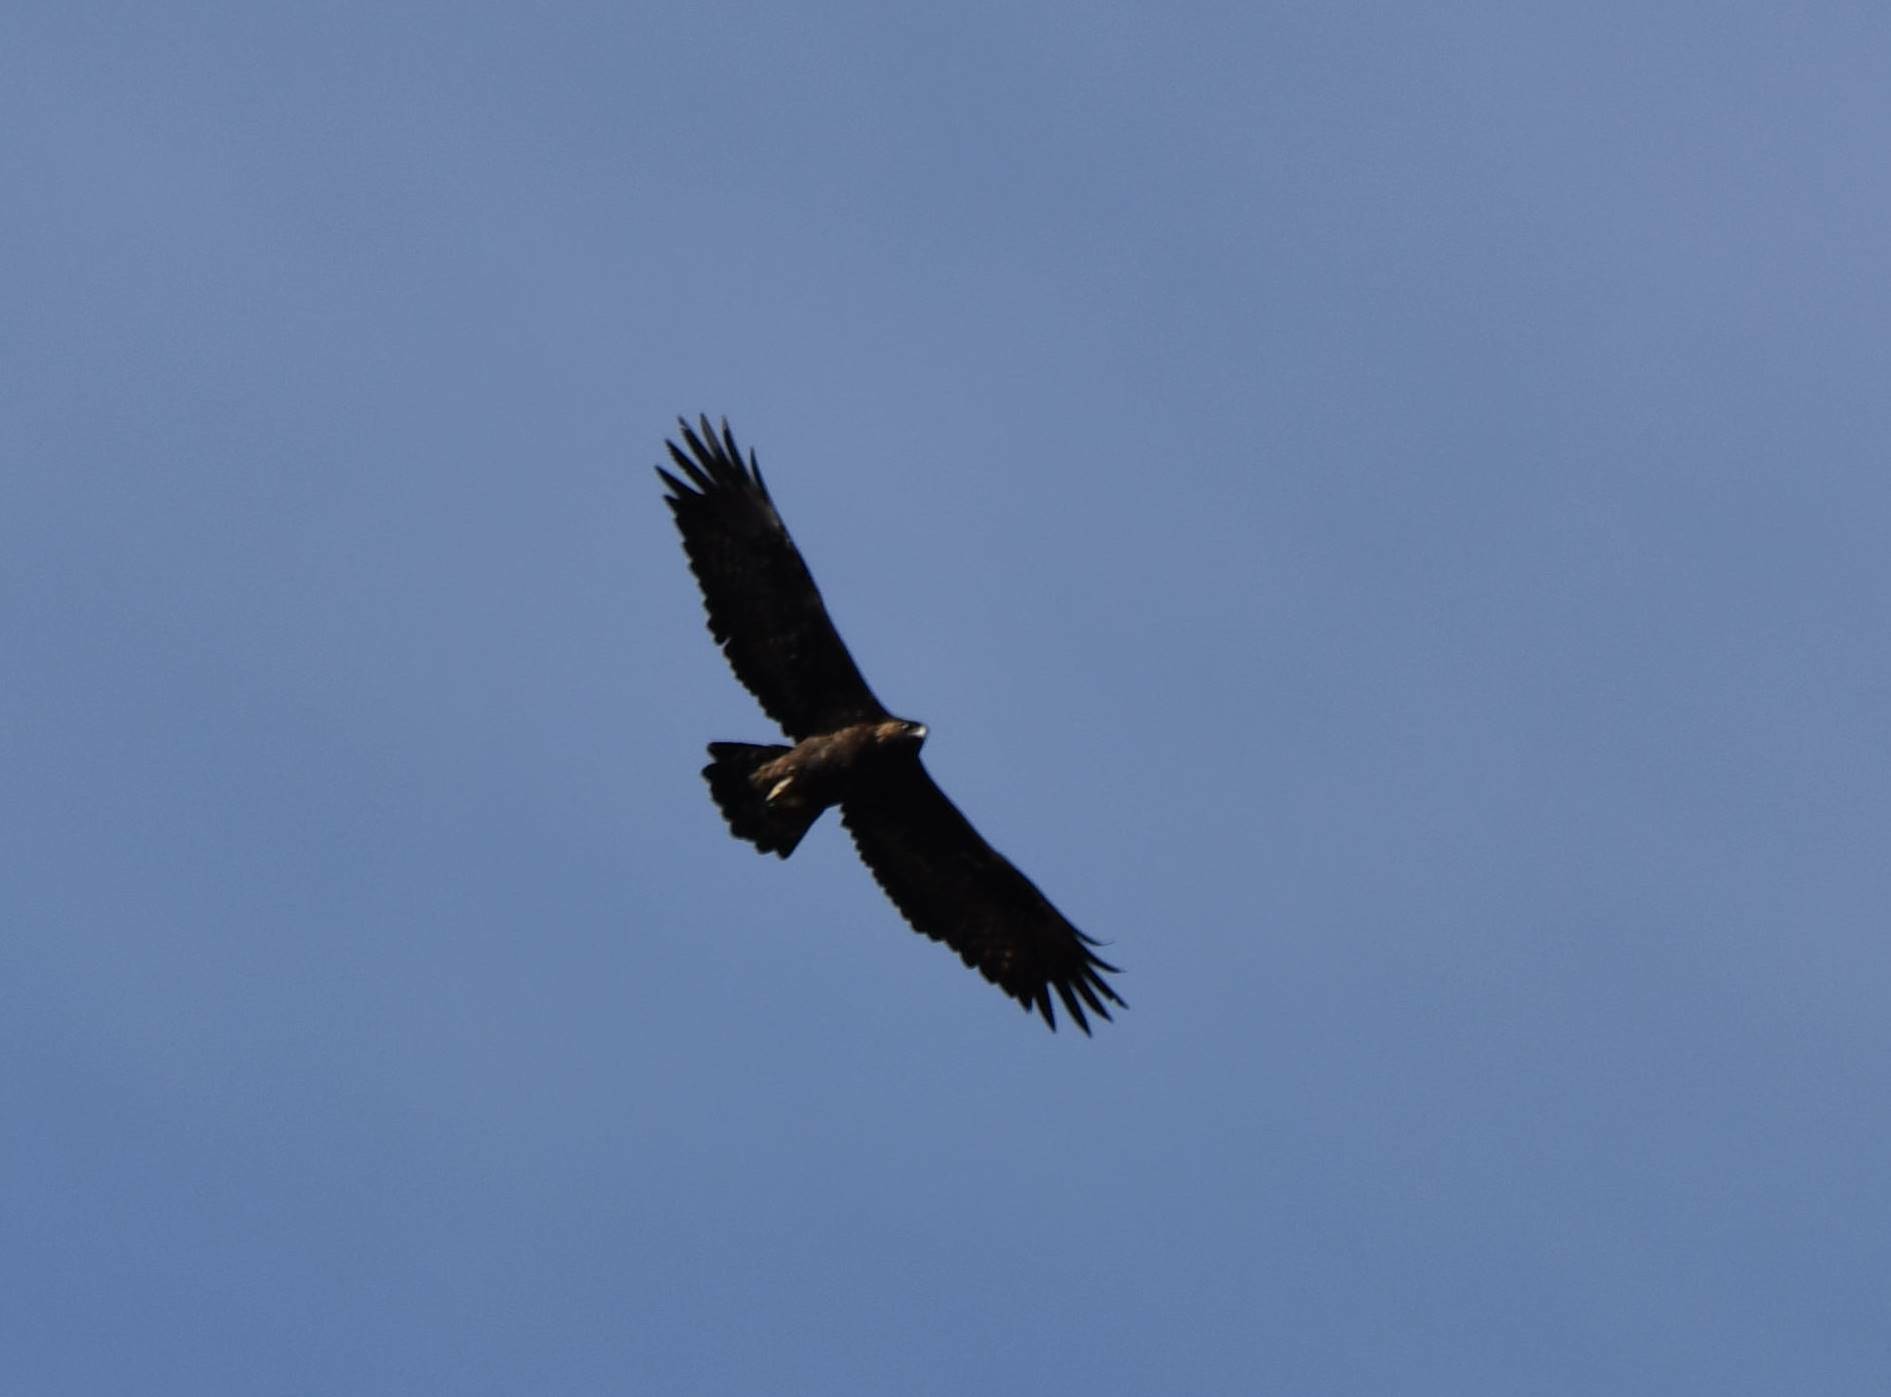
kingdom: Animalia
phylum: Chordata
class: Aves
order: Accipitriformes
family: Accipitridae
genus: Aquila
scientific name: Aquila chrysaetos
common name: Golden eagle
